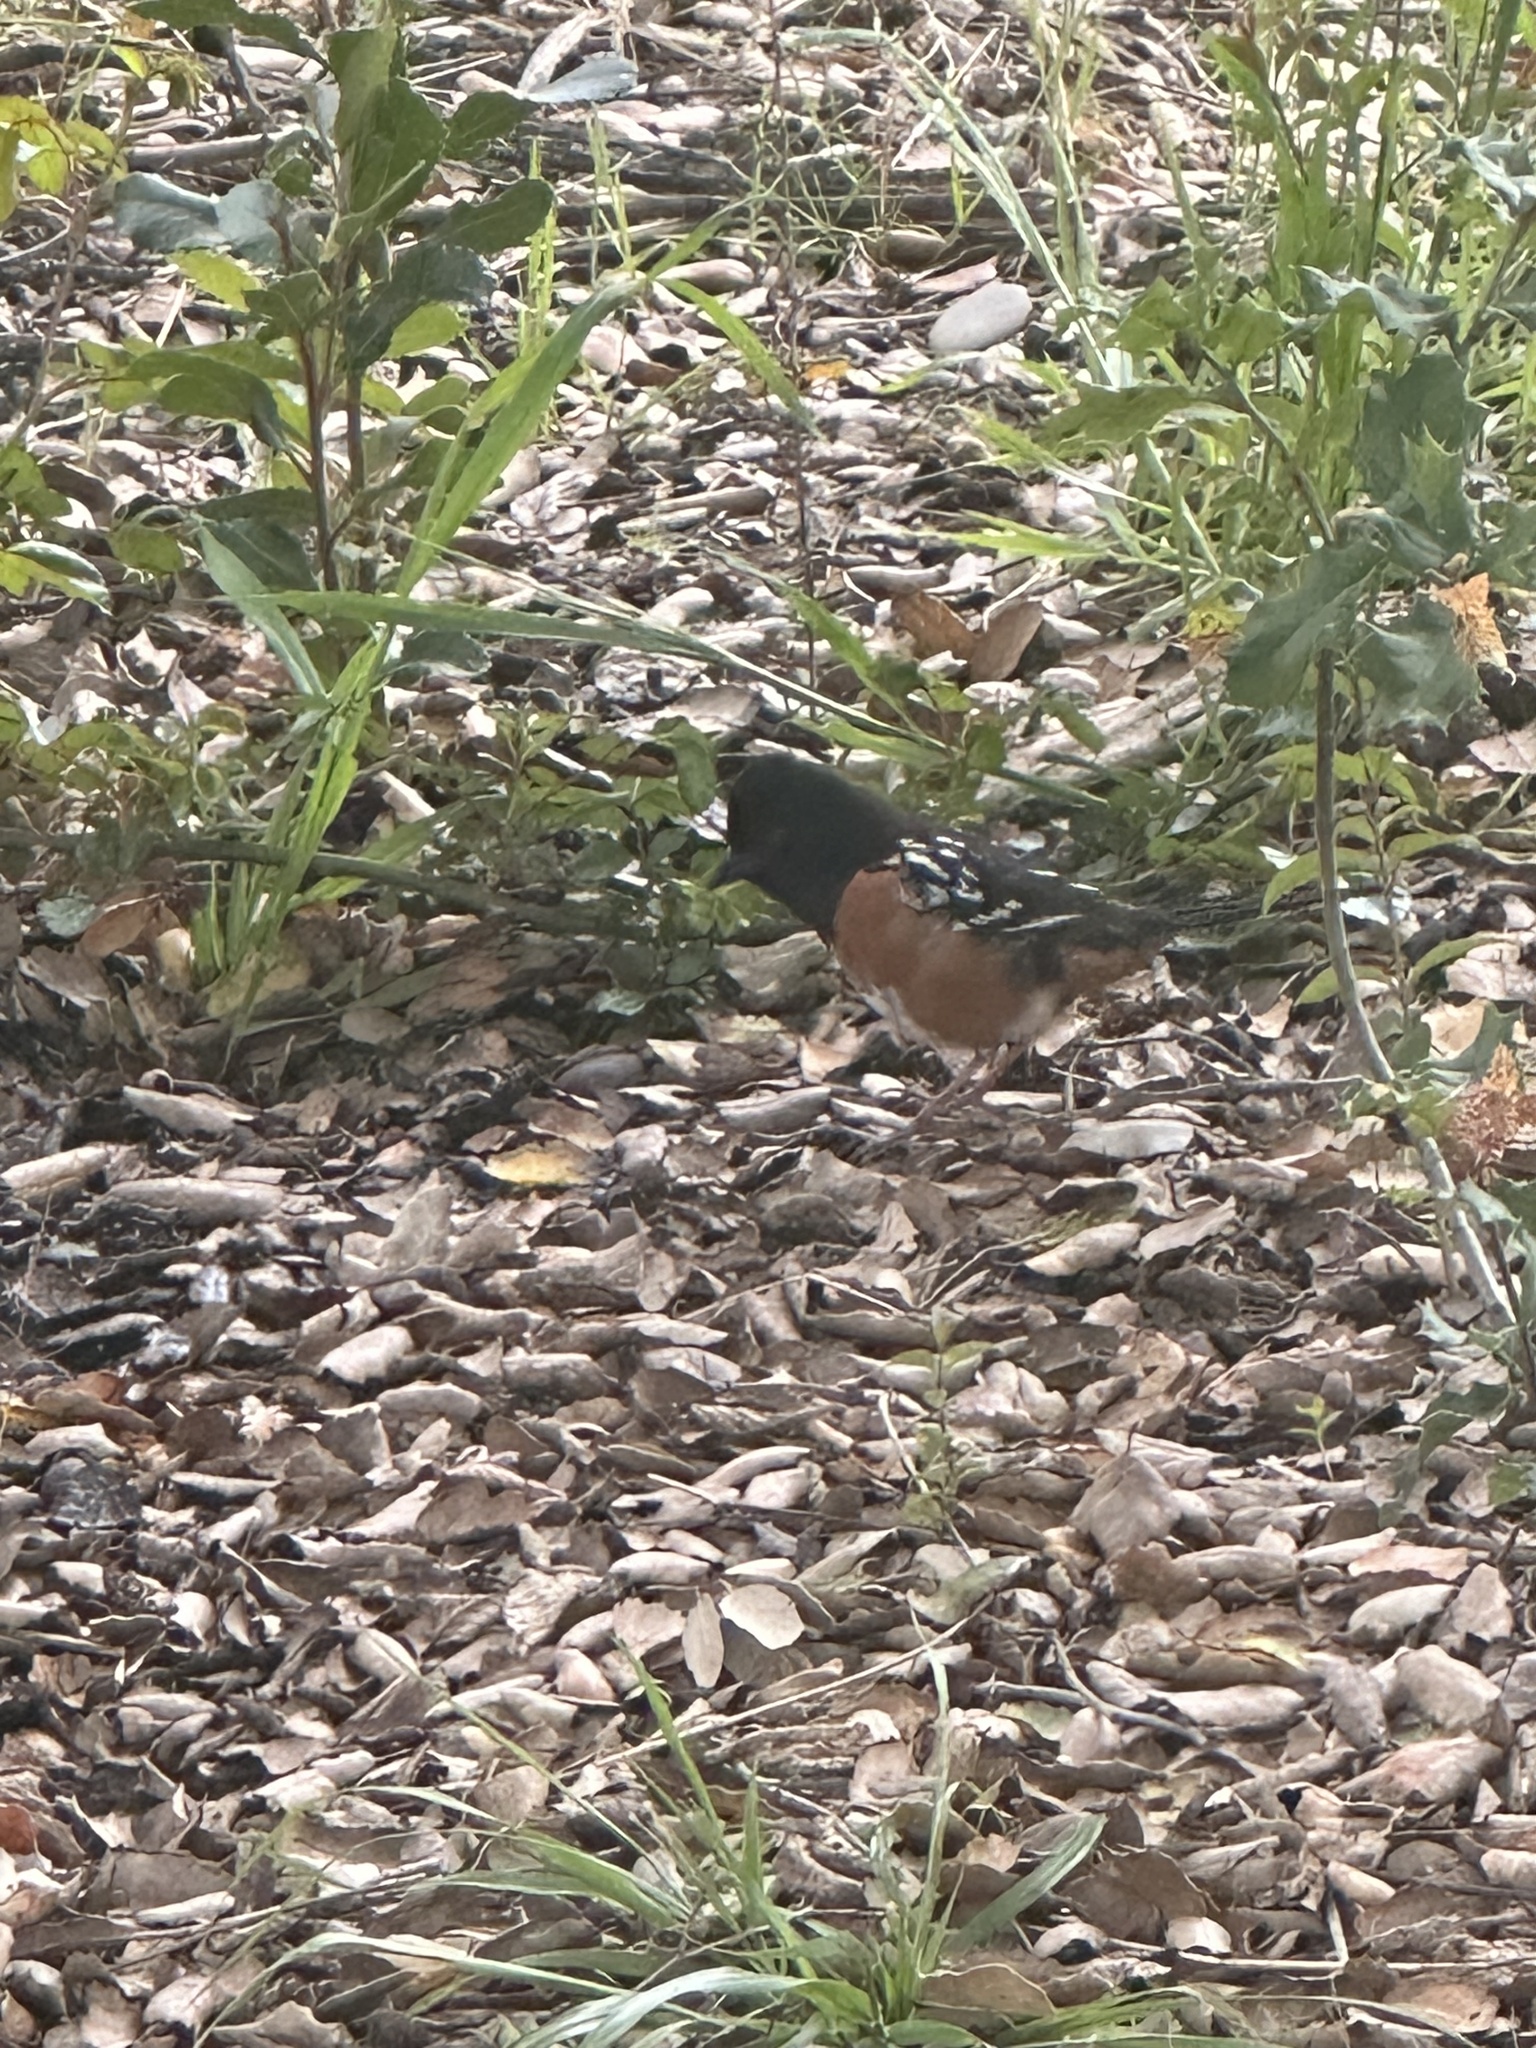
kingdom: Animalia
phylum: Chordata
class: Aves
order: Passeriformes
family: Passerellidae
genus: Pipilo
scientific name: Pipilo maculatus
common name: Spotted towhee
